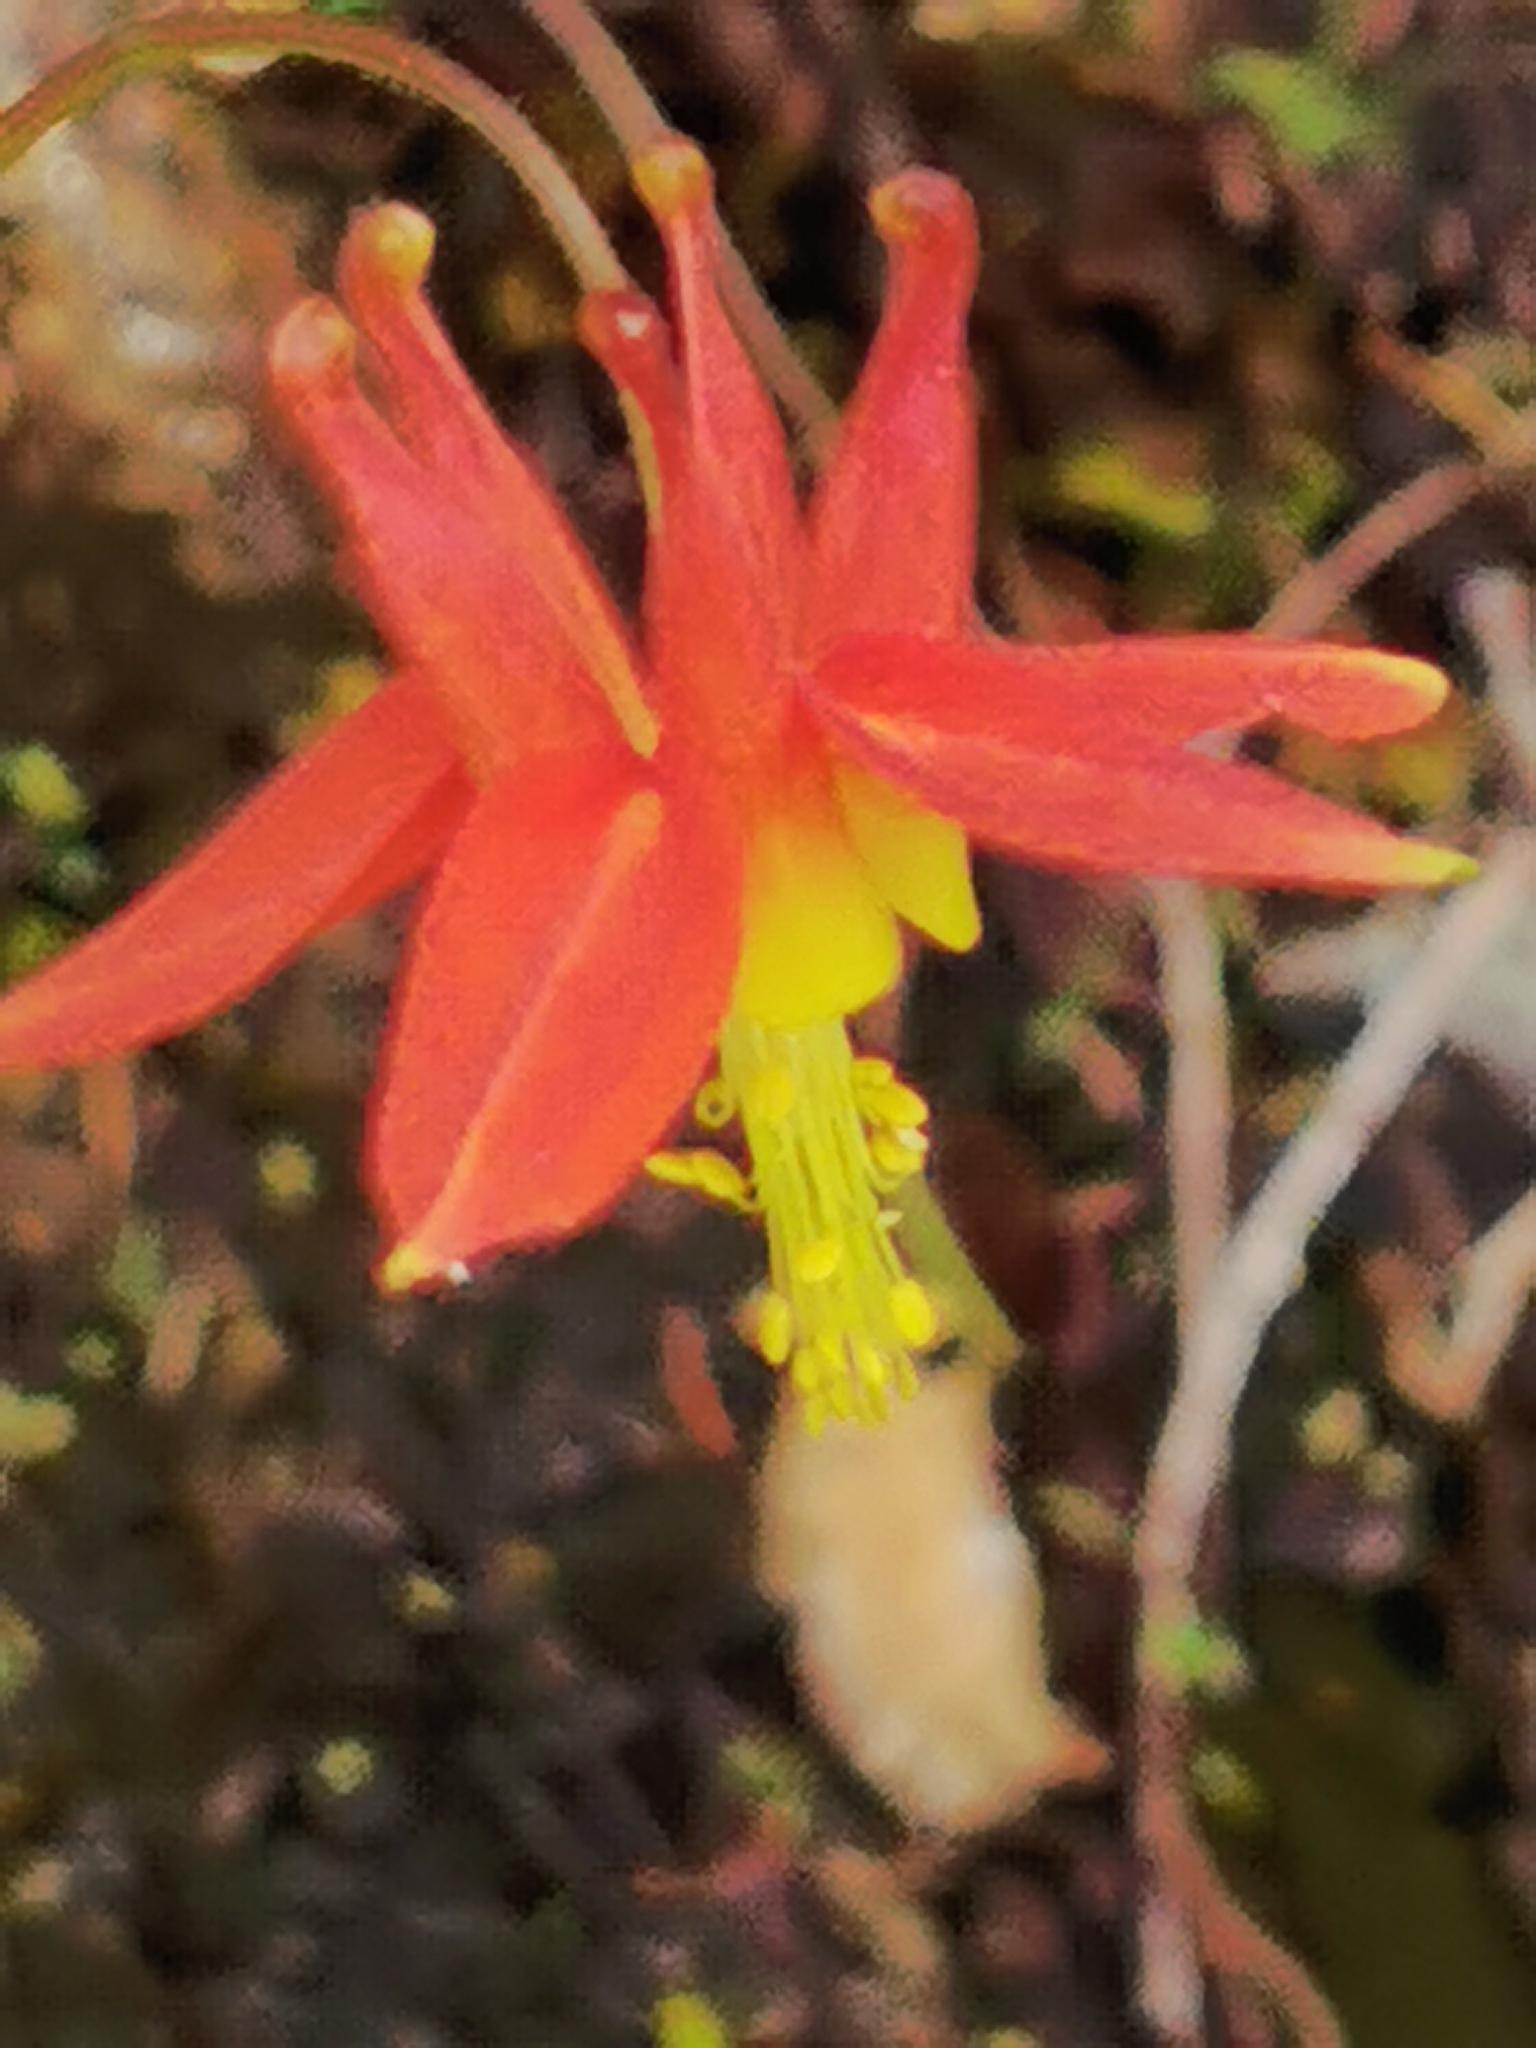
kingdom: Plantae
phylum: Tracheophyta
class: Magnoliopsida
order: Ranunculales
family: Ranunculaceae
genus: Aquilegia
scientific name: Aquilegia formosa
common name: Sitka columbine
